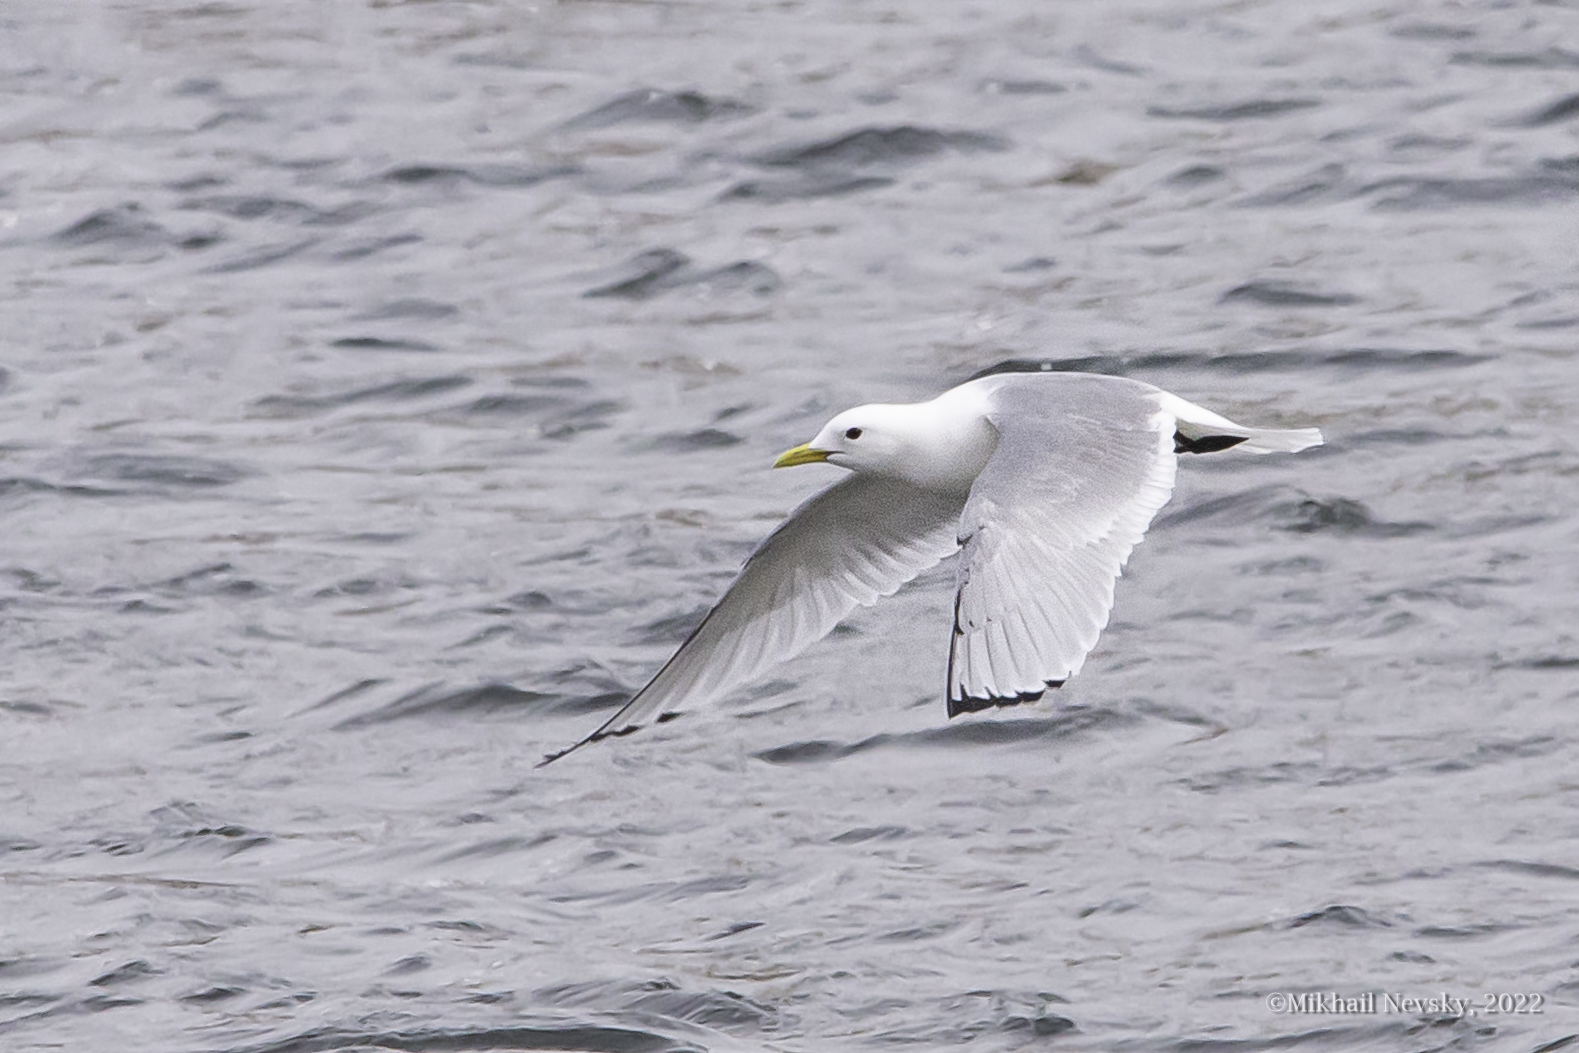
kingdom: Animalia
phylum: Chordata
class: Aves
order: Charadriiformes
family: Laridae
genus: Rissa
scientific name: Rissa tridactyla
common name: Black-legged kittiwake
